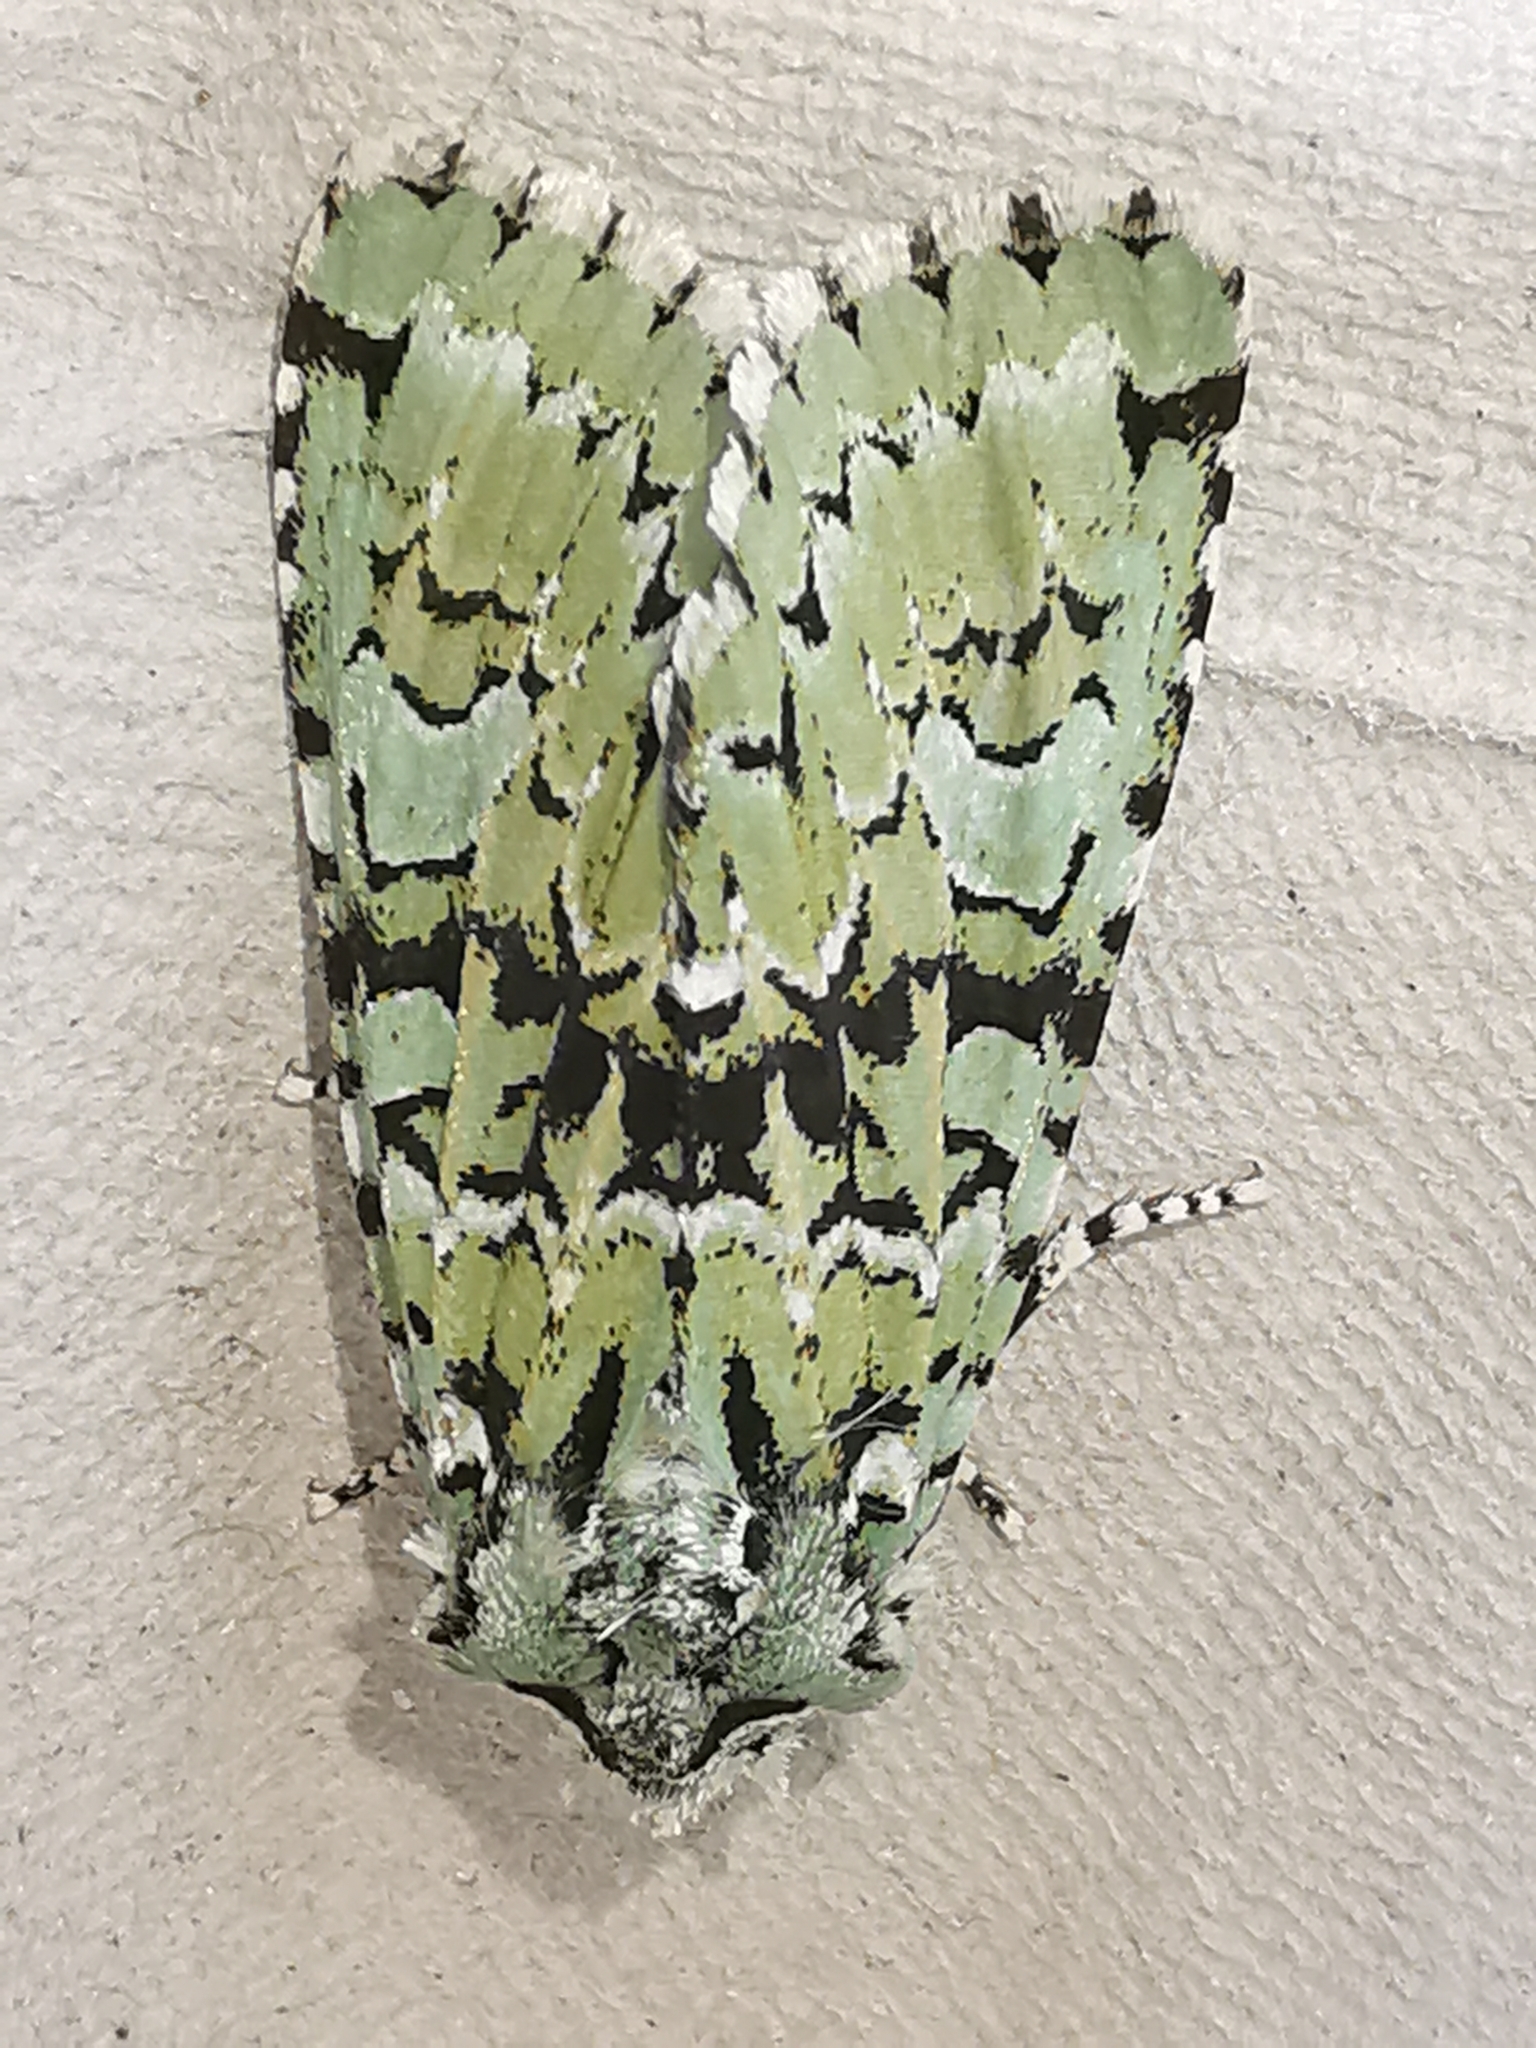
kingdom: Animalia
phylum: Arthropoda
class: Insecta
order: Lepidoptera
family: Noctuidae
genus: Griposia
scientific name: Griposia aprilina
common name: Merveille du jour
